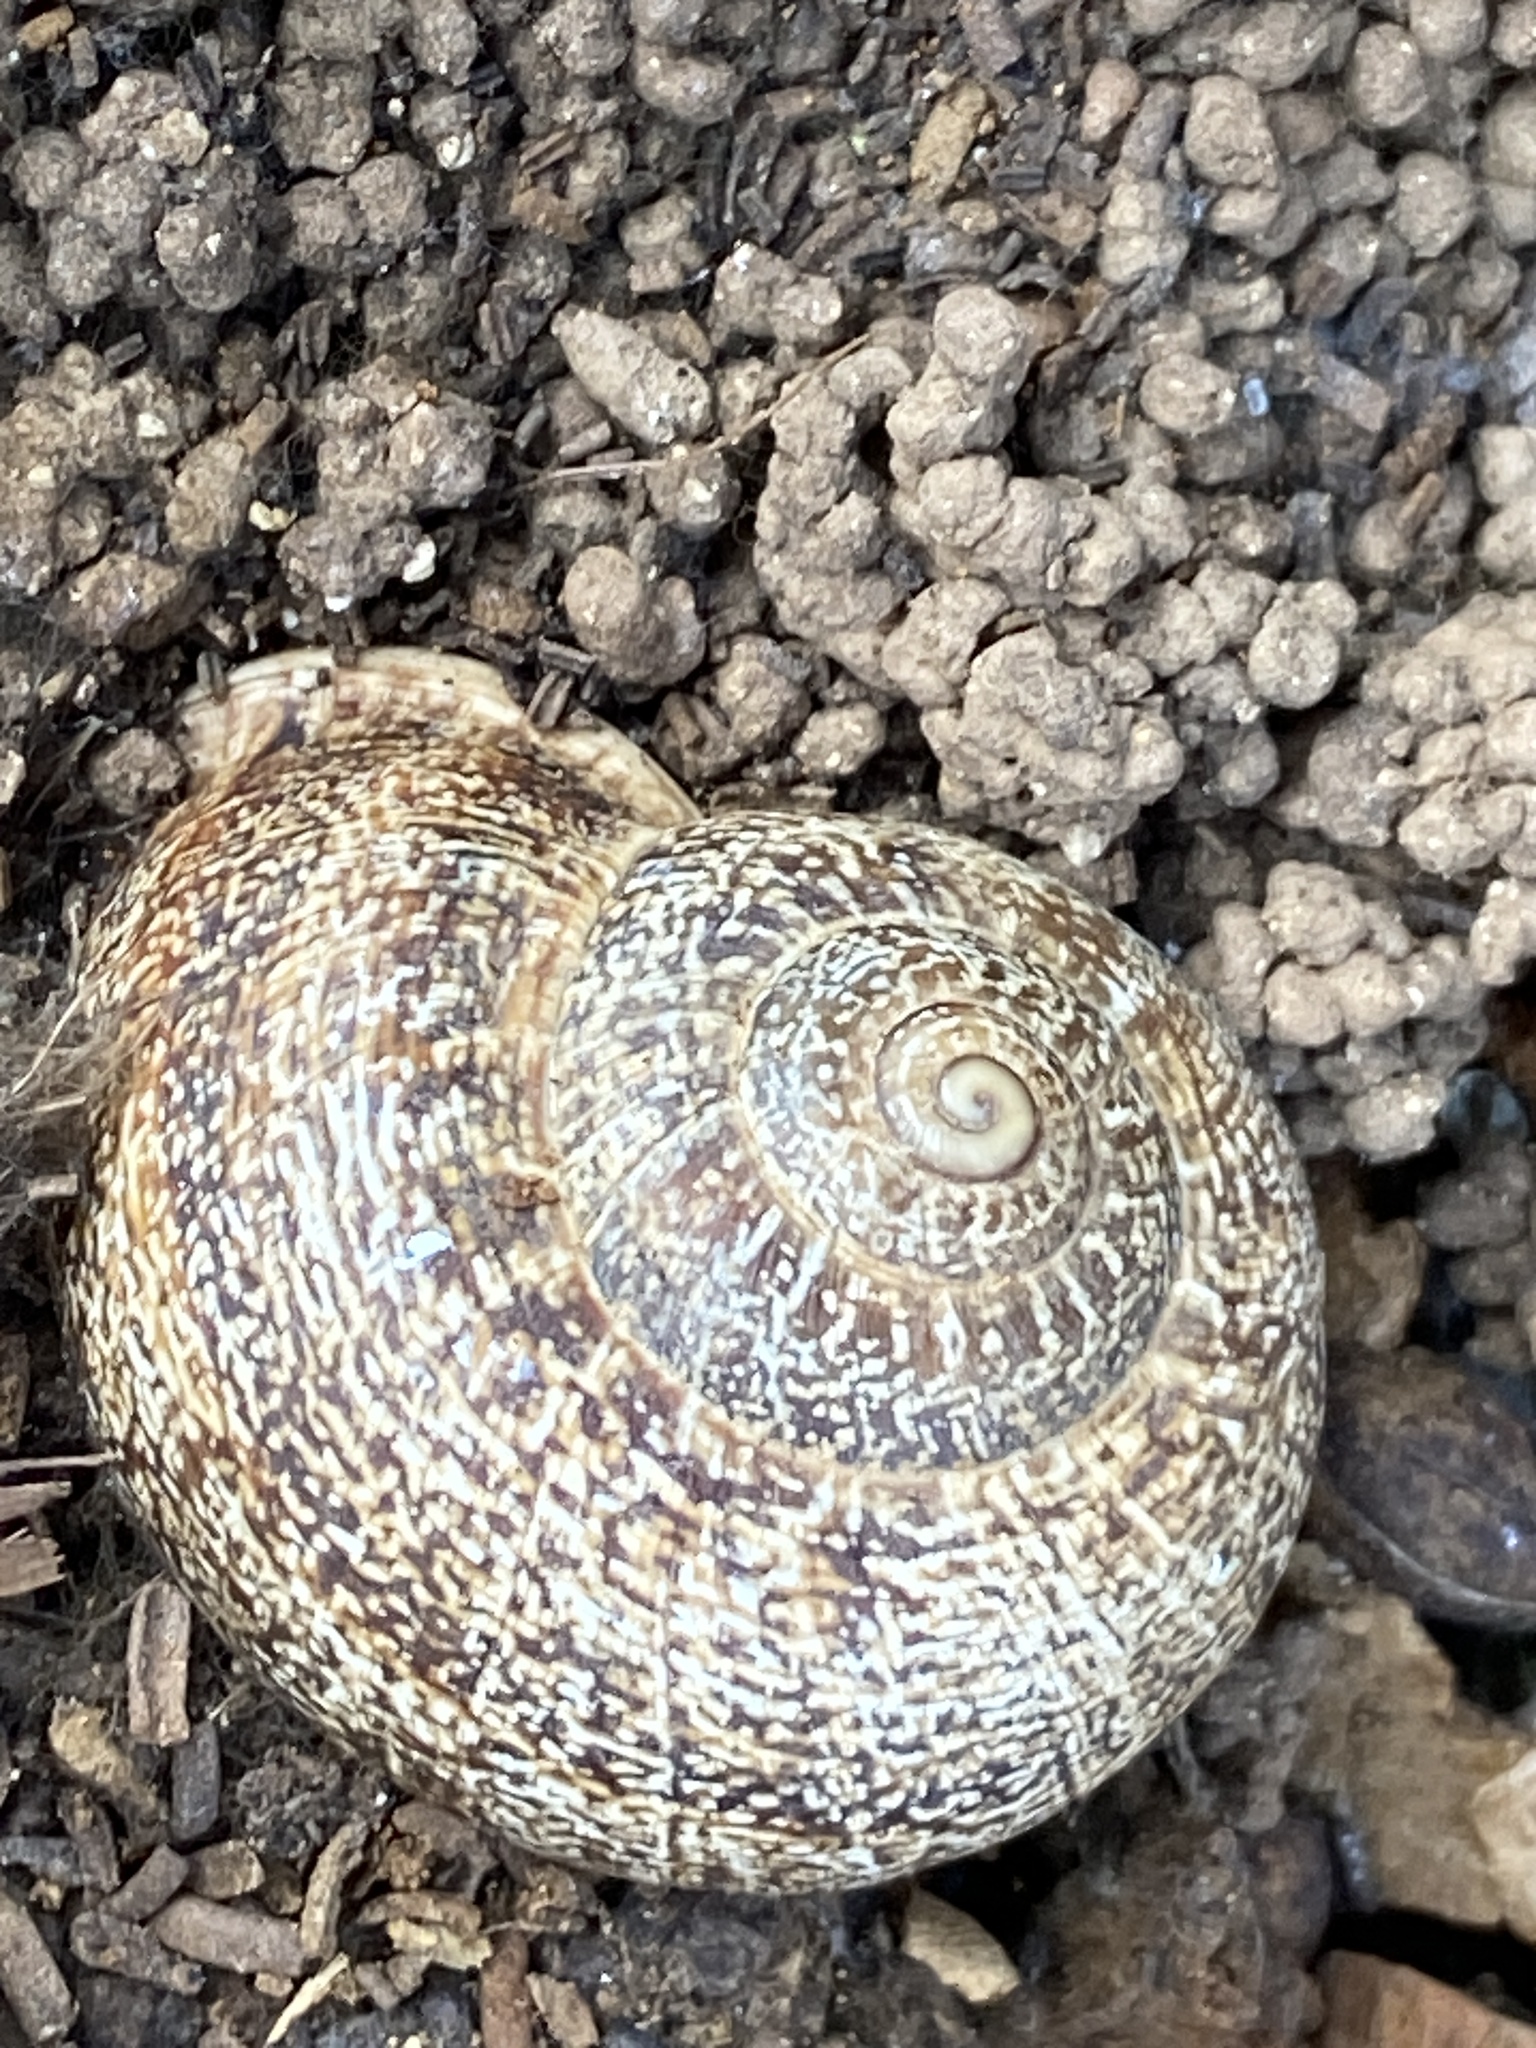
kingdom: Animalia
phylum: Mollusca
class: Gastropoda
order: Stylommatophora
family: Helicidae
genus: Otala
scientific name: Otala lactea
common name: Milk snail
